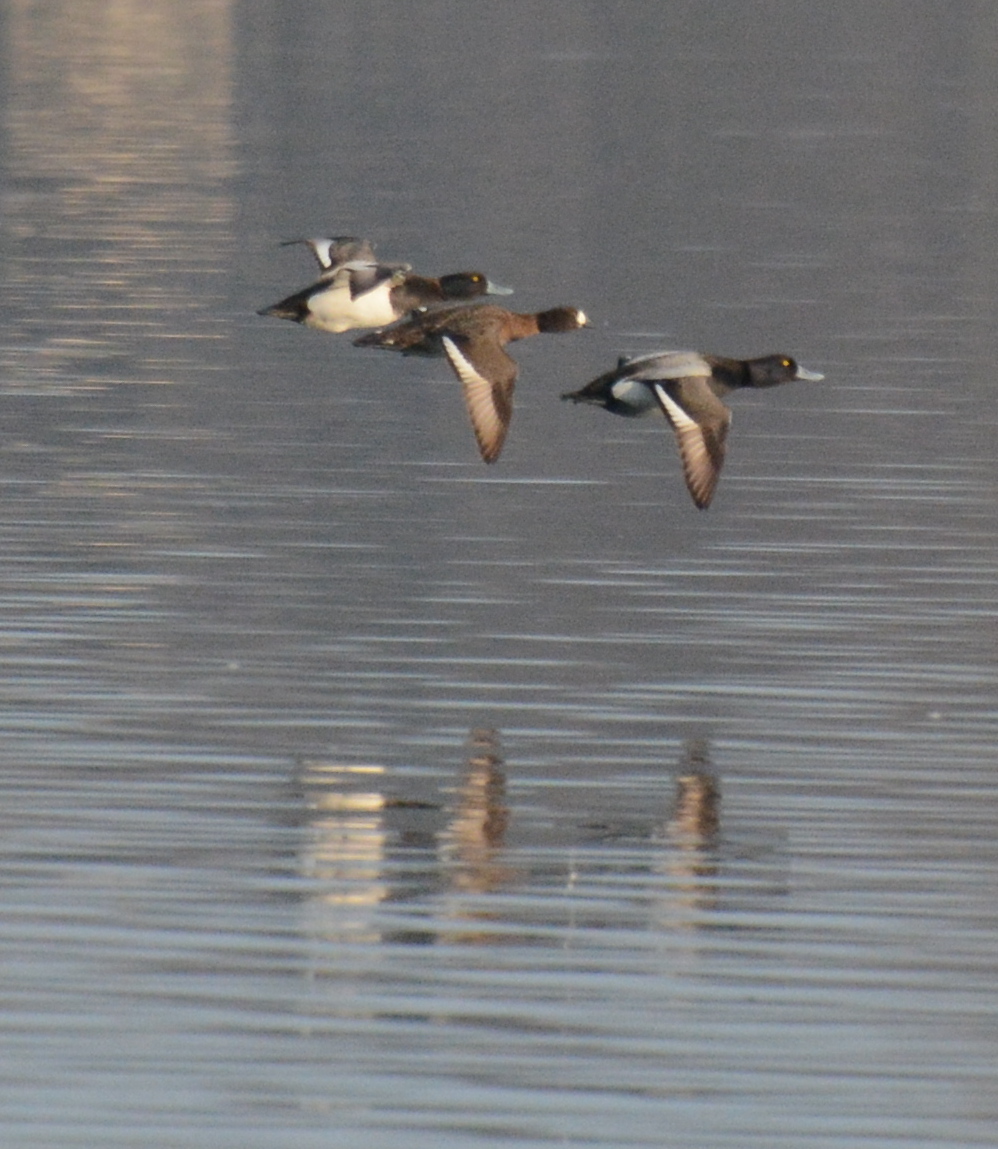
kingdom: Animalia
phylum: Chordata
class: Aves
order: Anseriformes
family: Anatidae
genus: Aythya
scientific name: Aythya marila
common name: Greater scaup
